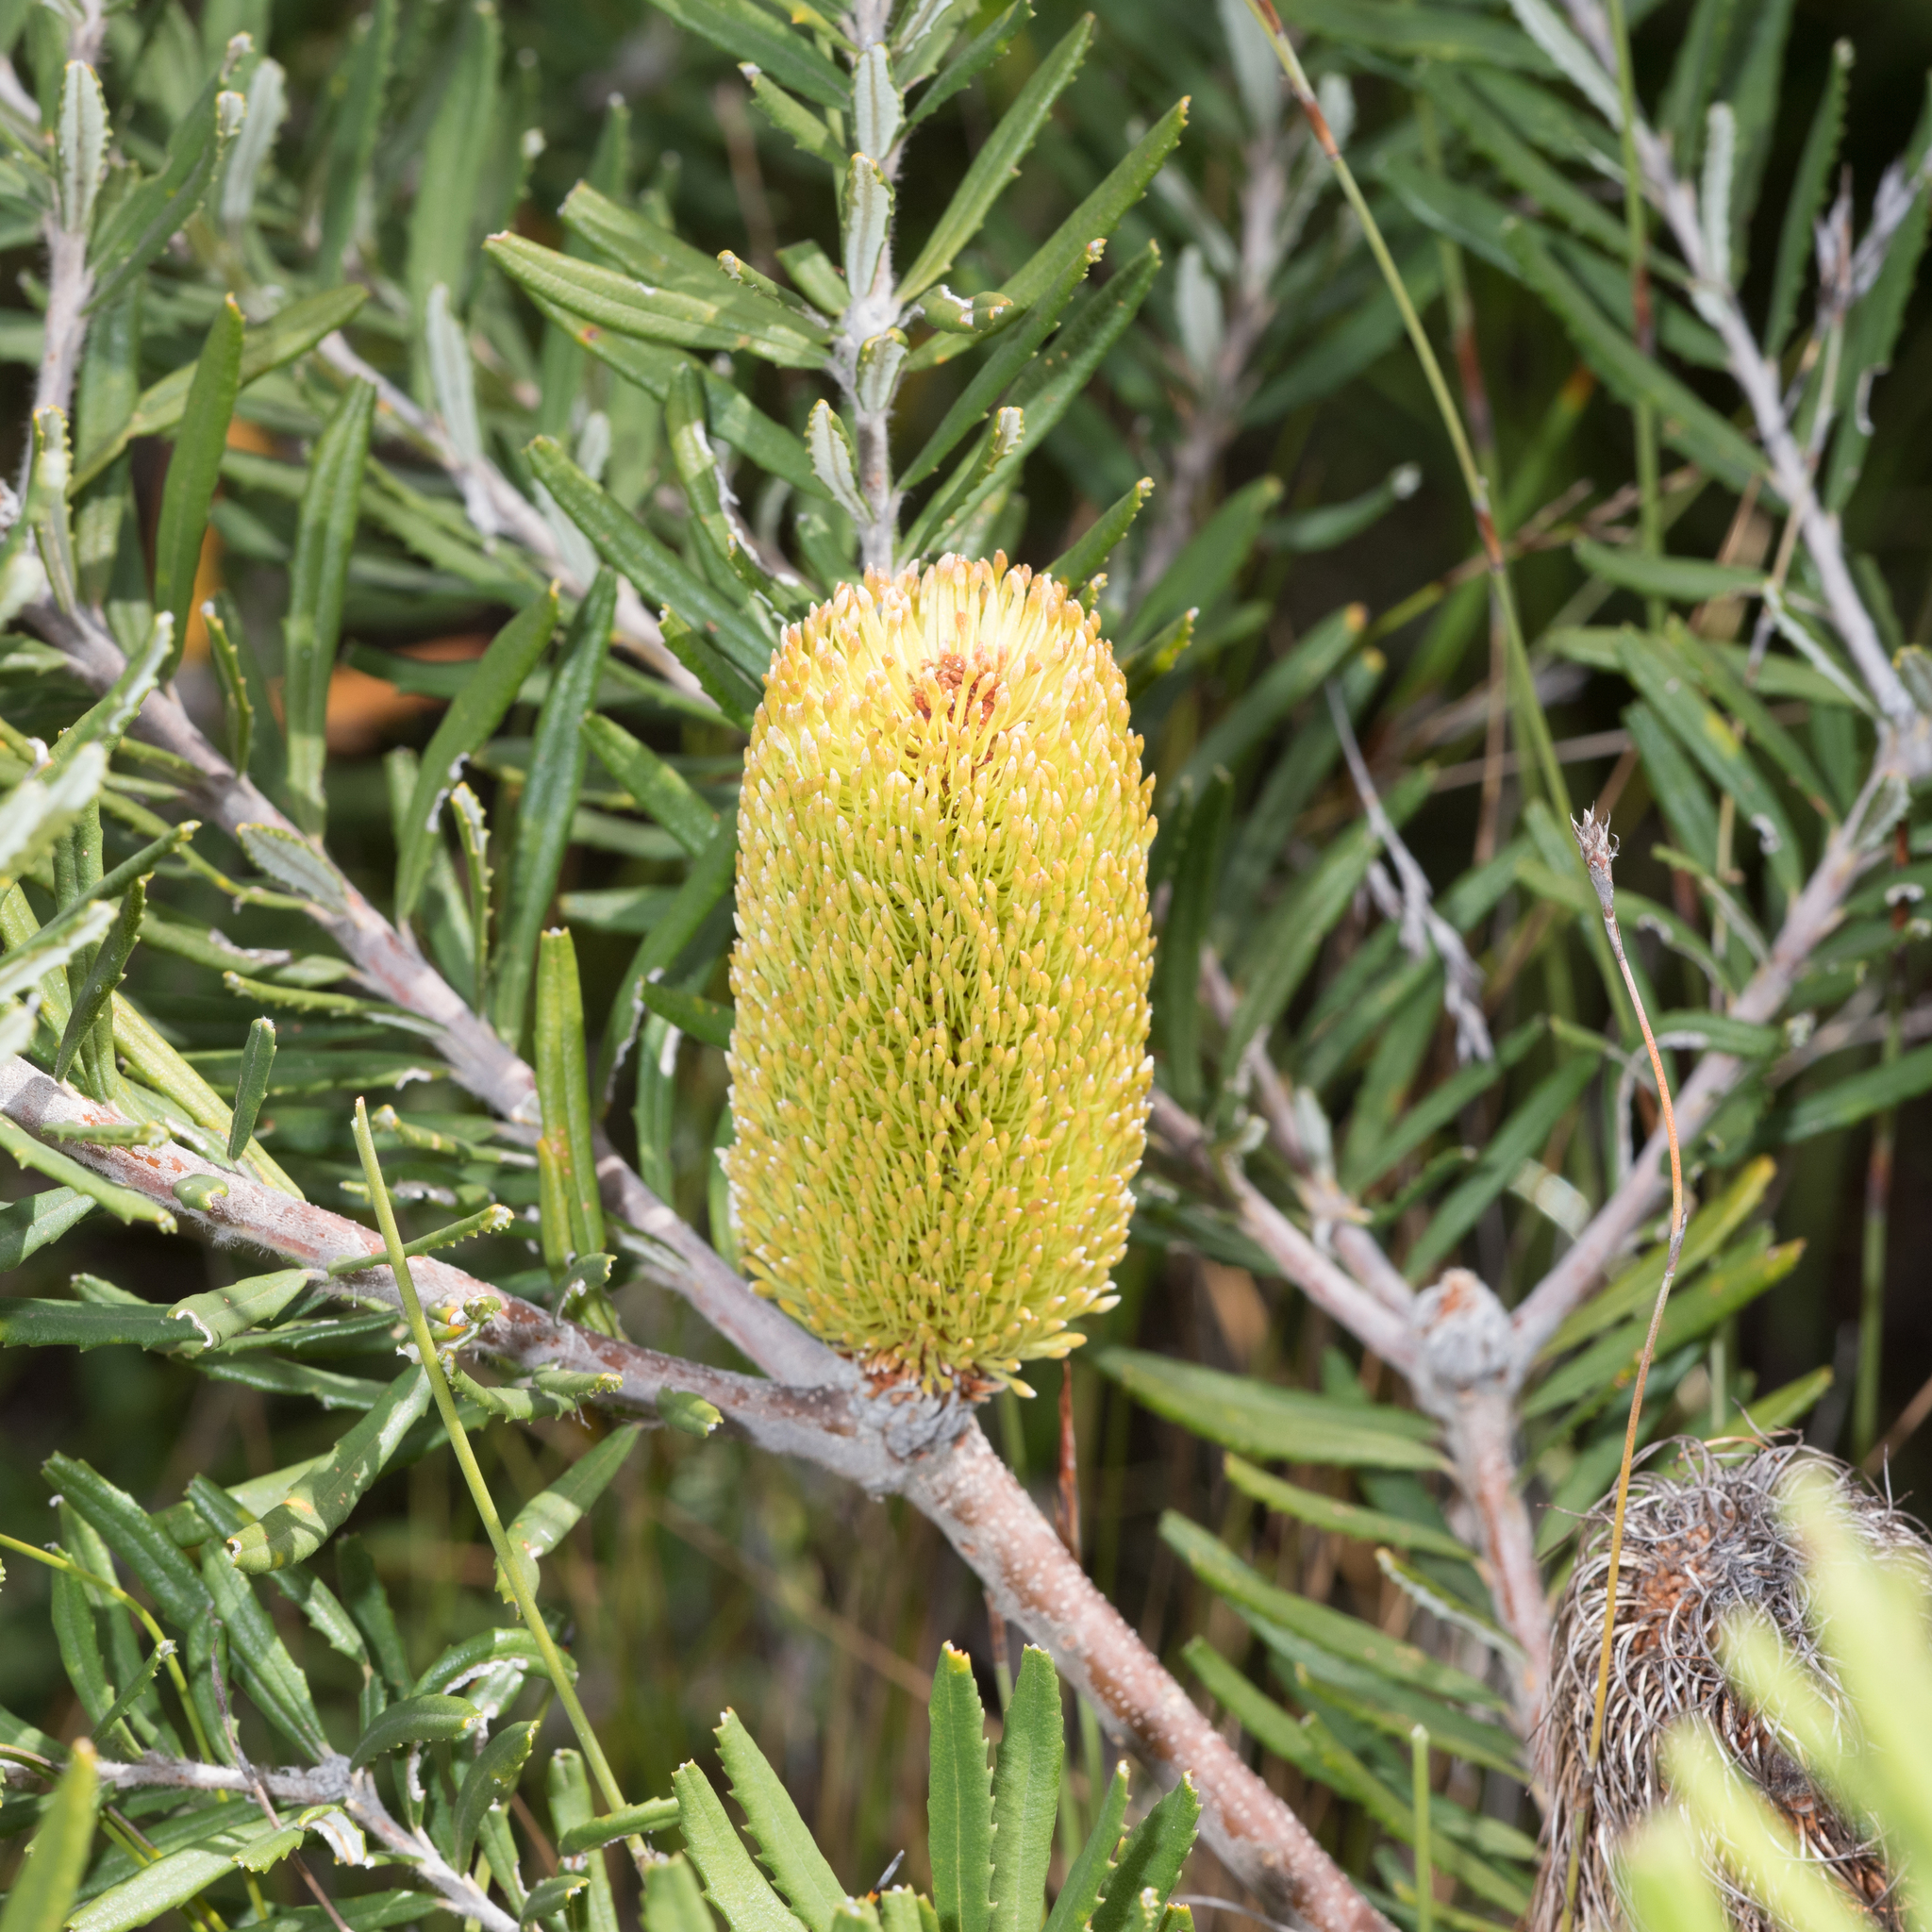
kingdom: Plantae
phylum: Tracheophyta
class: Magnoliopsida
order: Proteales
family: Proteaceae
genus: Banksia
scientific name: Banksia marginata
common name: Silver banksia
